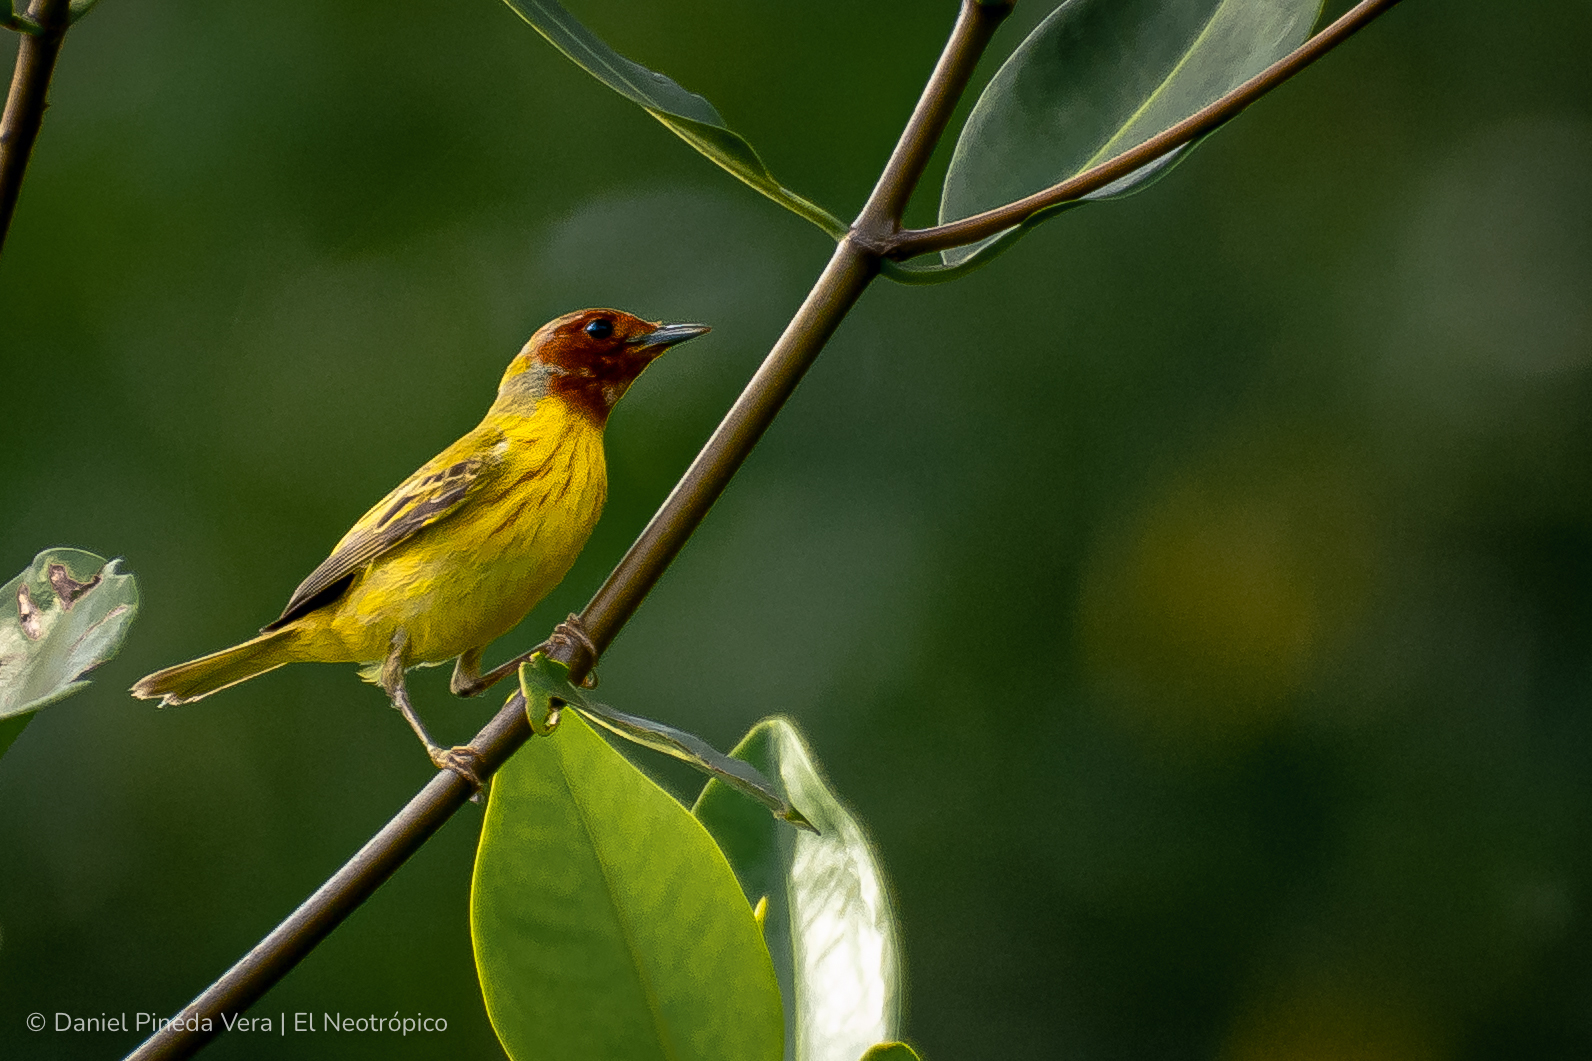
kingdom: Animalia
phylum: Chordata
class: Aves
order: Passeriformes
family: Parulidae
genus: Setophaga
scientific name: Setophaga petechia
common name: Yellow warbler
